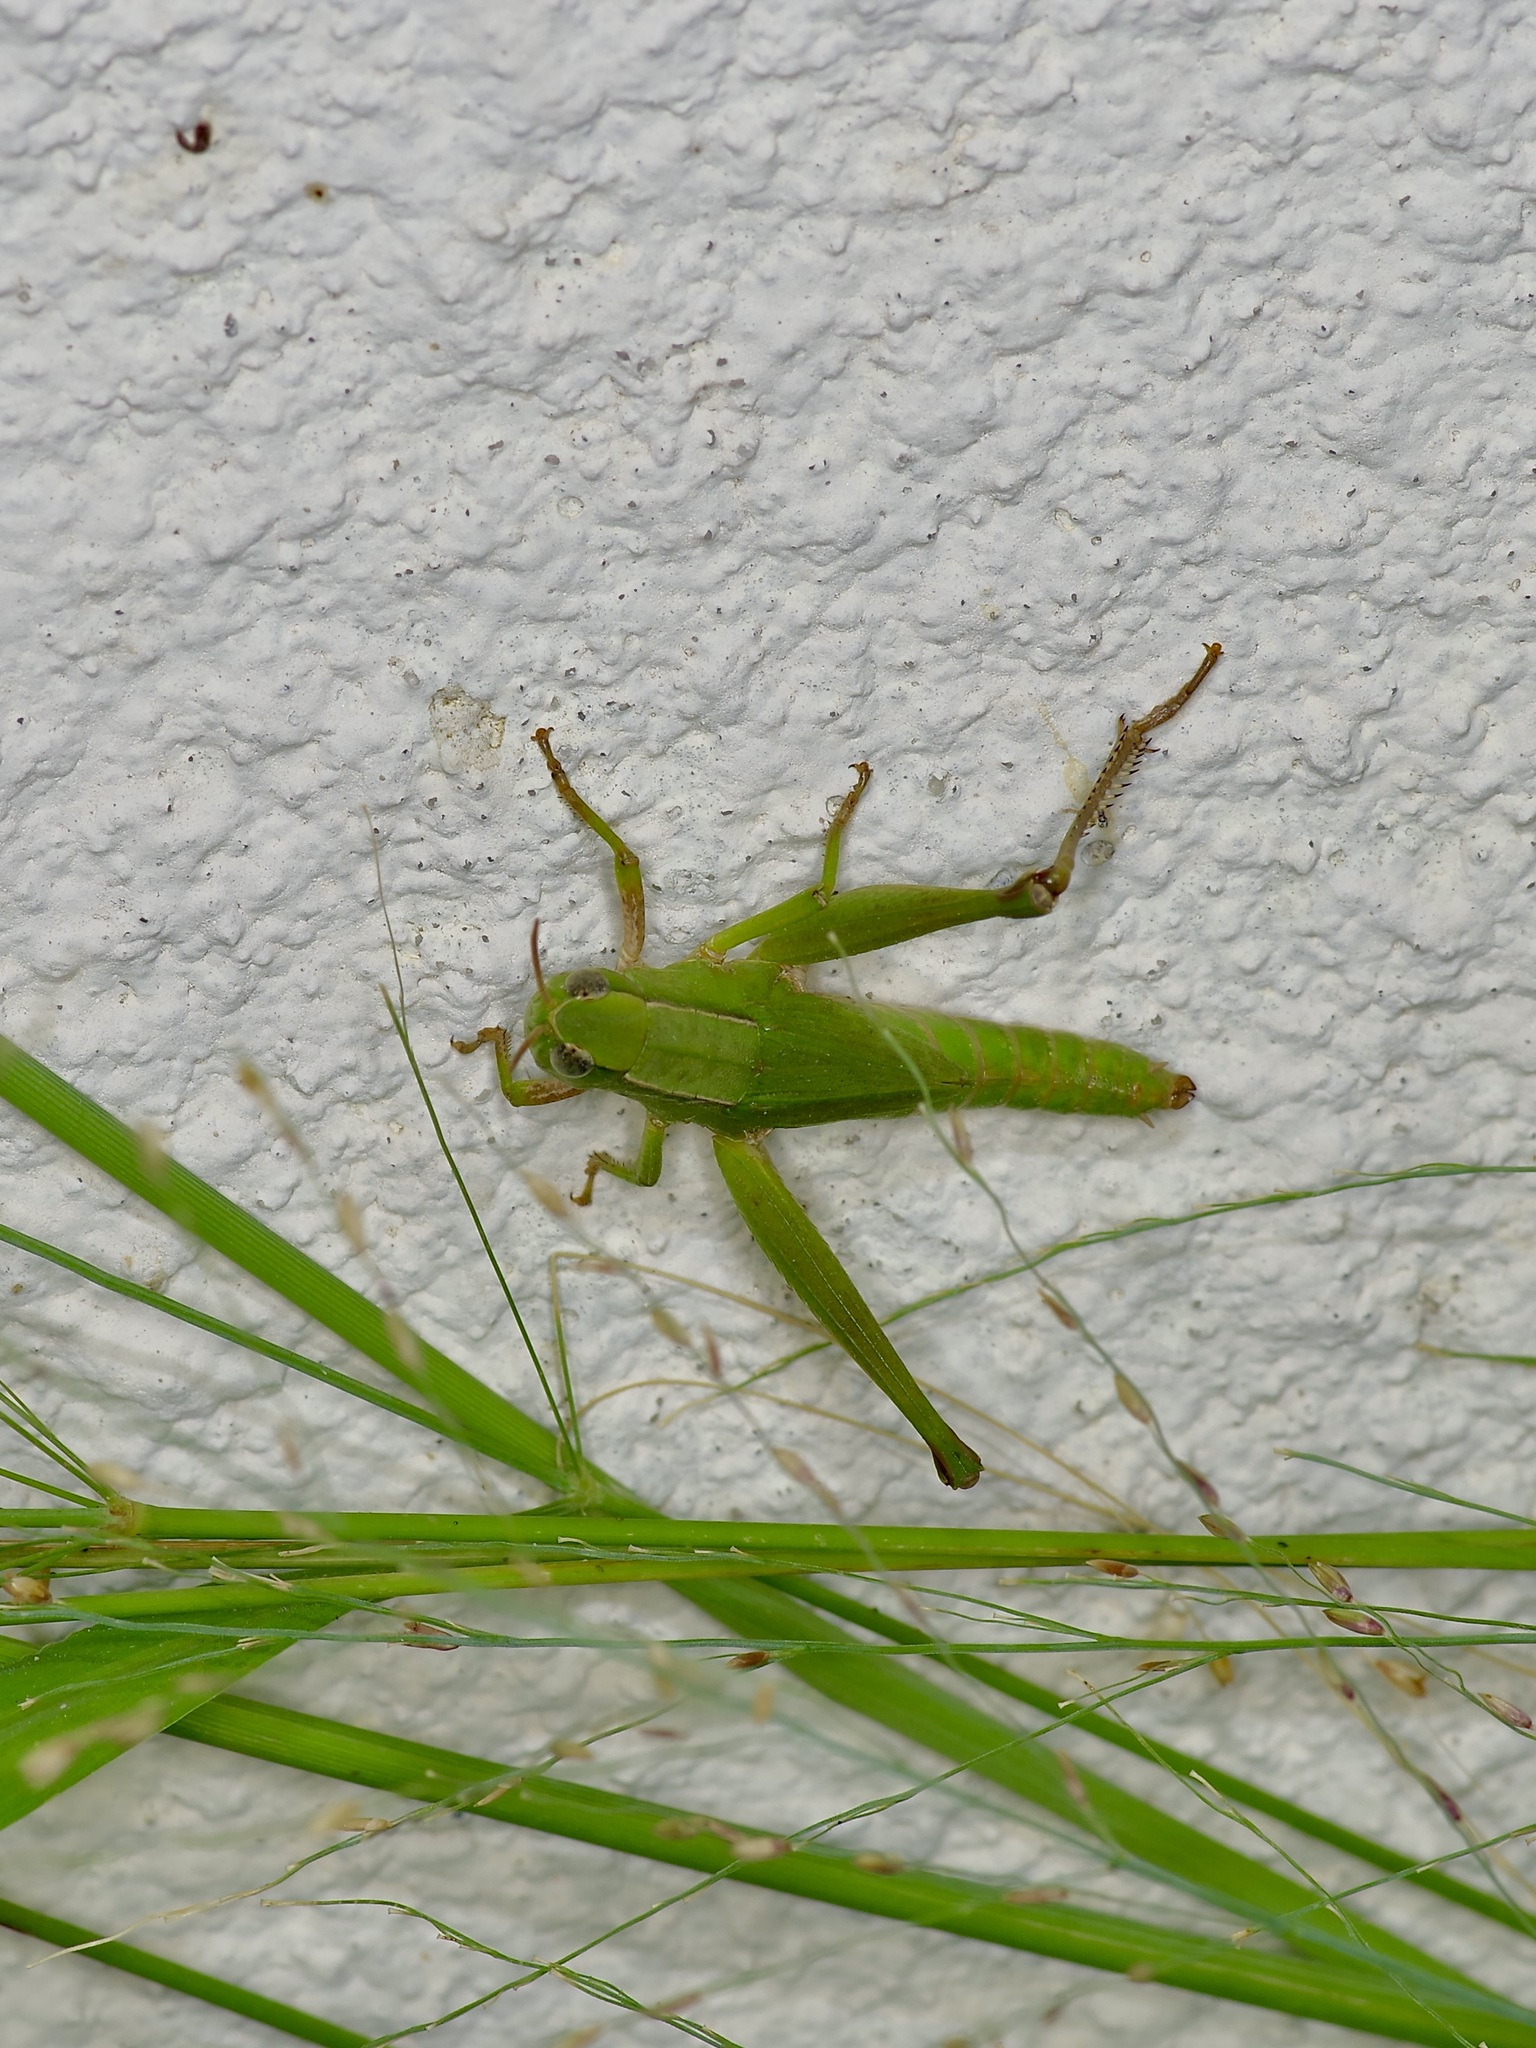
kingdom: Animalia
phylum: Arthropoda
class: Insecta
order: Orthoptera
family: Acrididae
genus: Dichromorpha
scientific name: Dichromorpha viridis
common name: Short-winged green grasshopper
